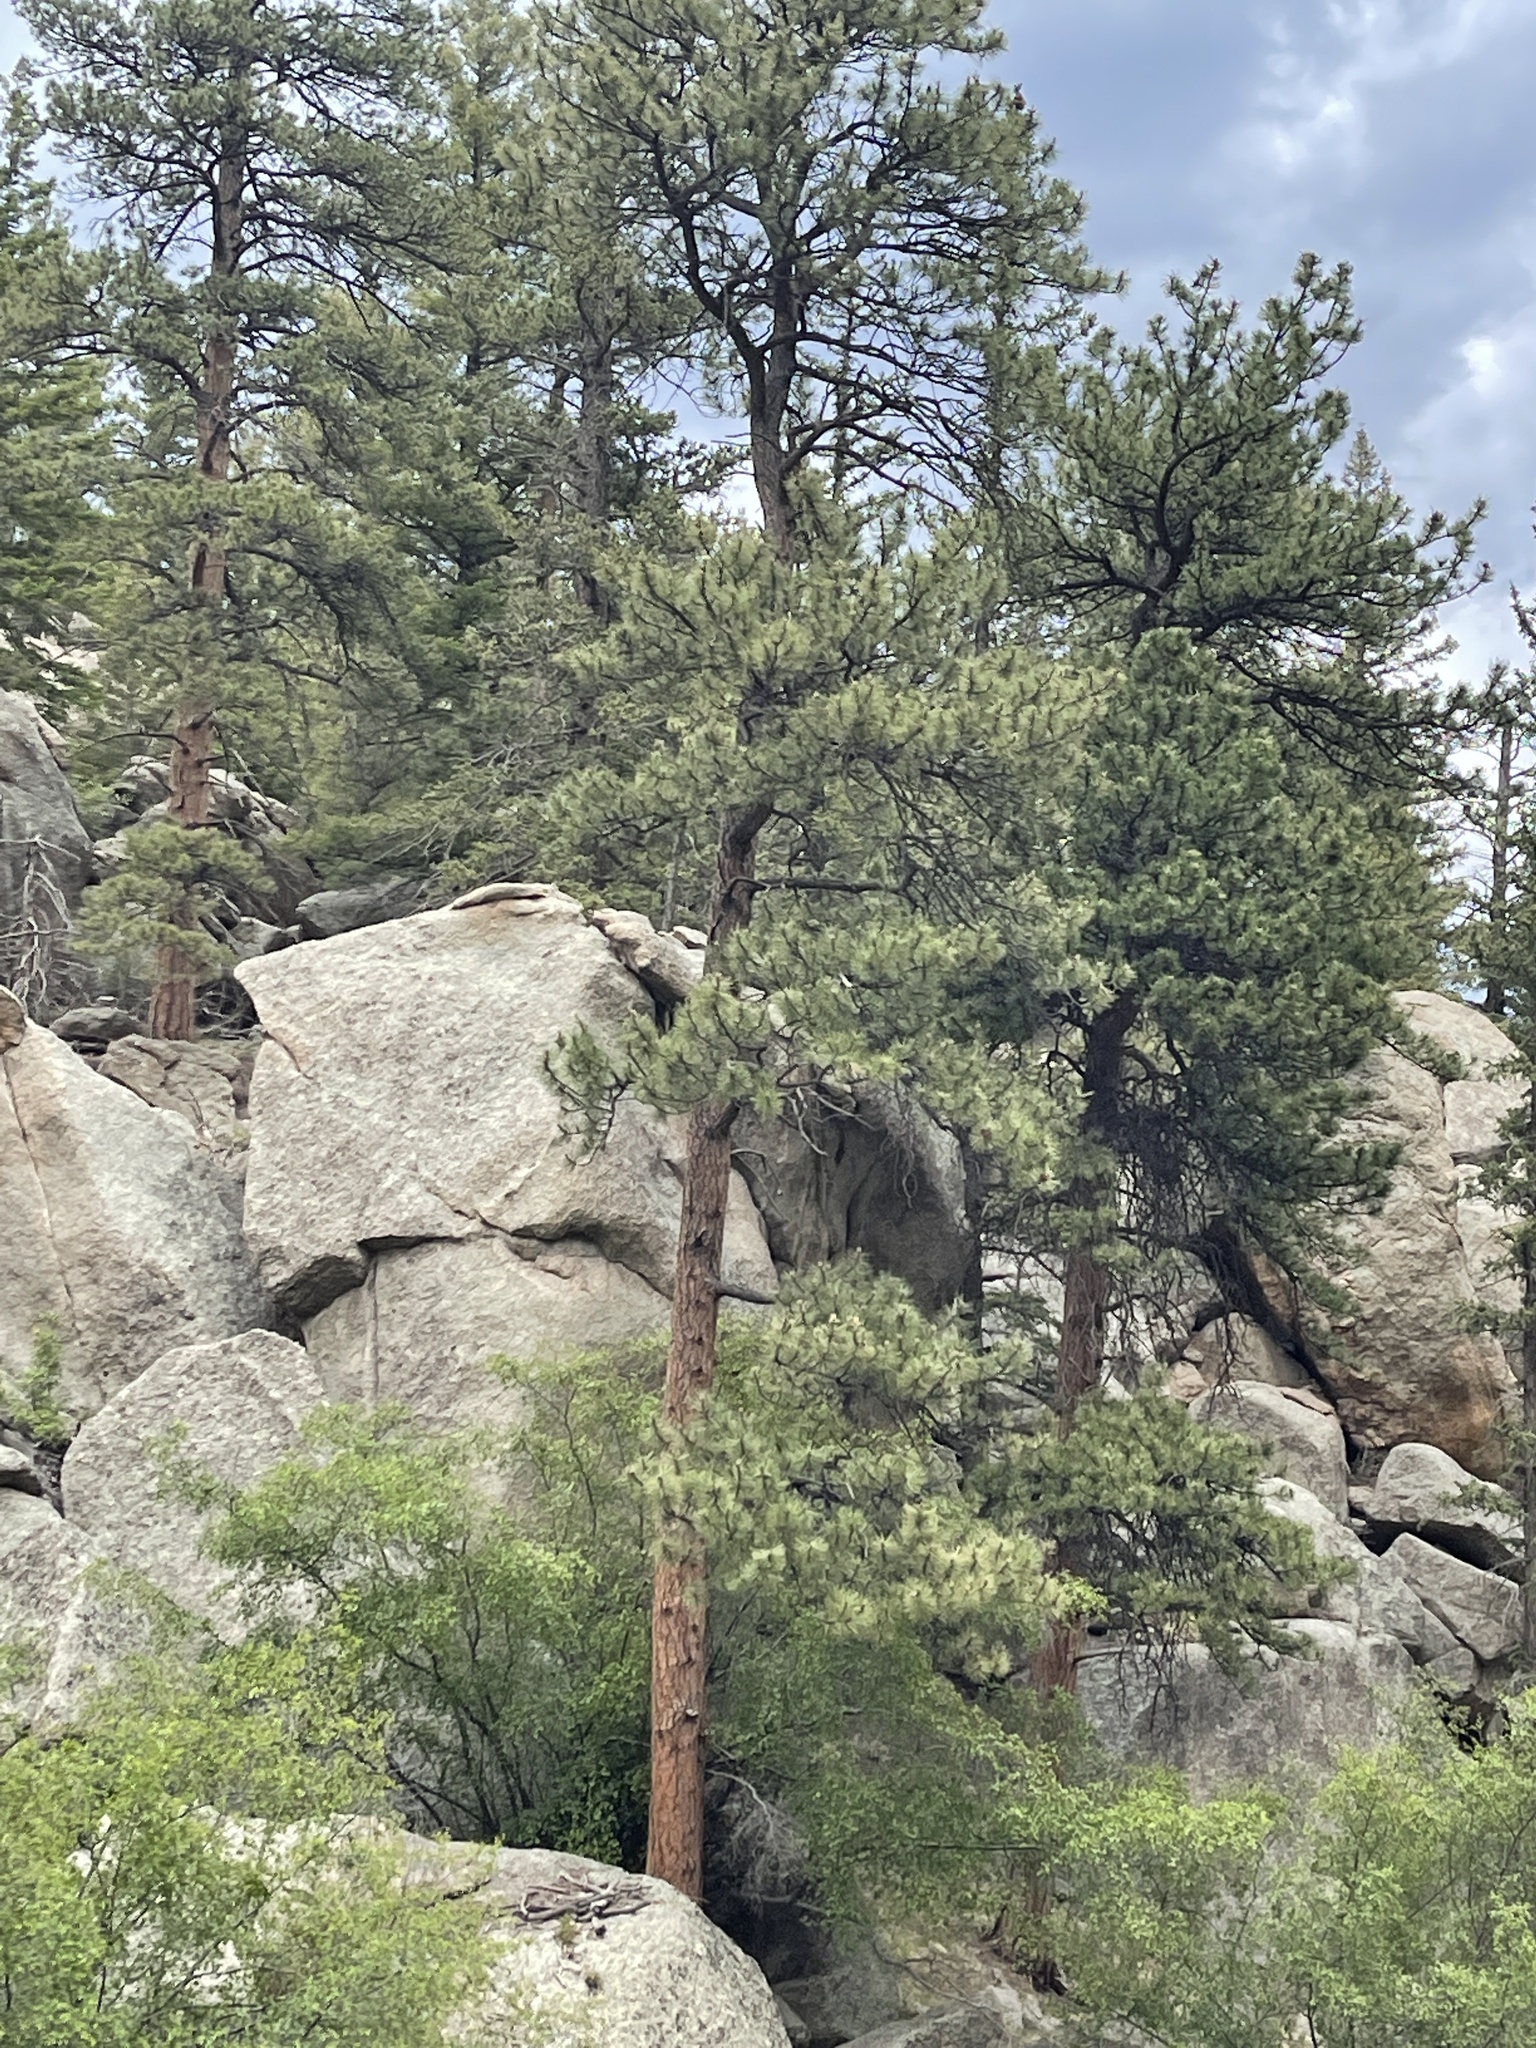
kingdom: Plantae
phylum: Tracheophyta
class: Pinopsida
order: Pinales
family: Pinaceae
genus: Pinus
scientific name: Pinus ponderosa
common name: Western yellow-pine
